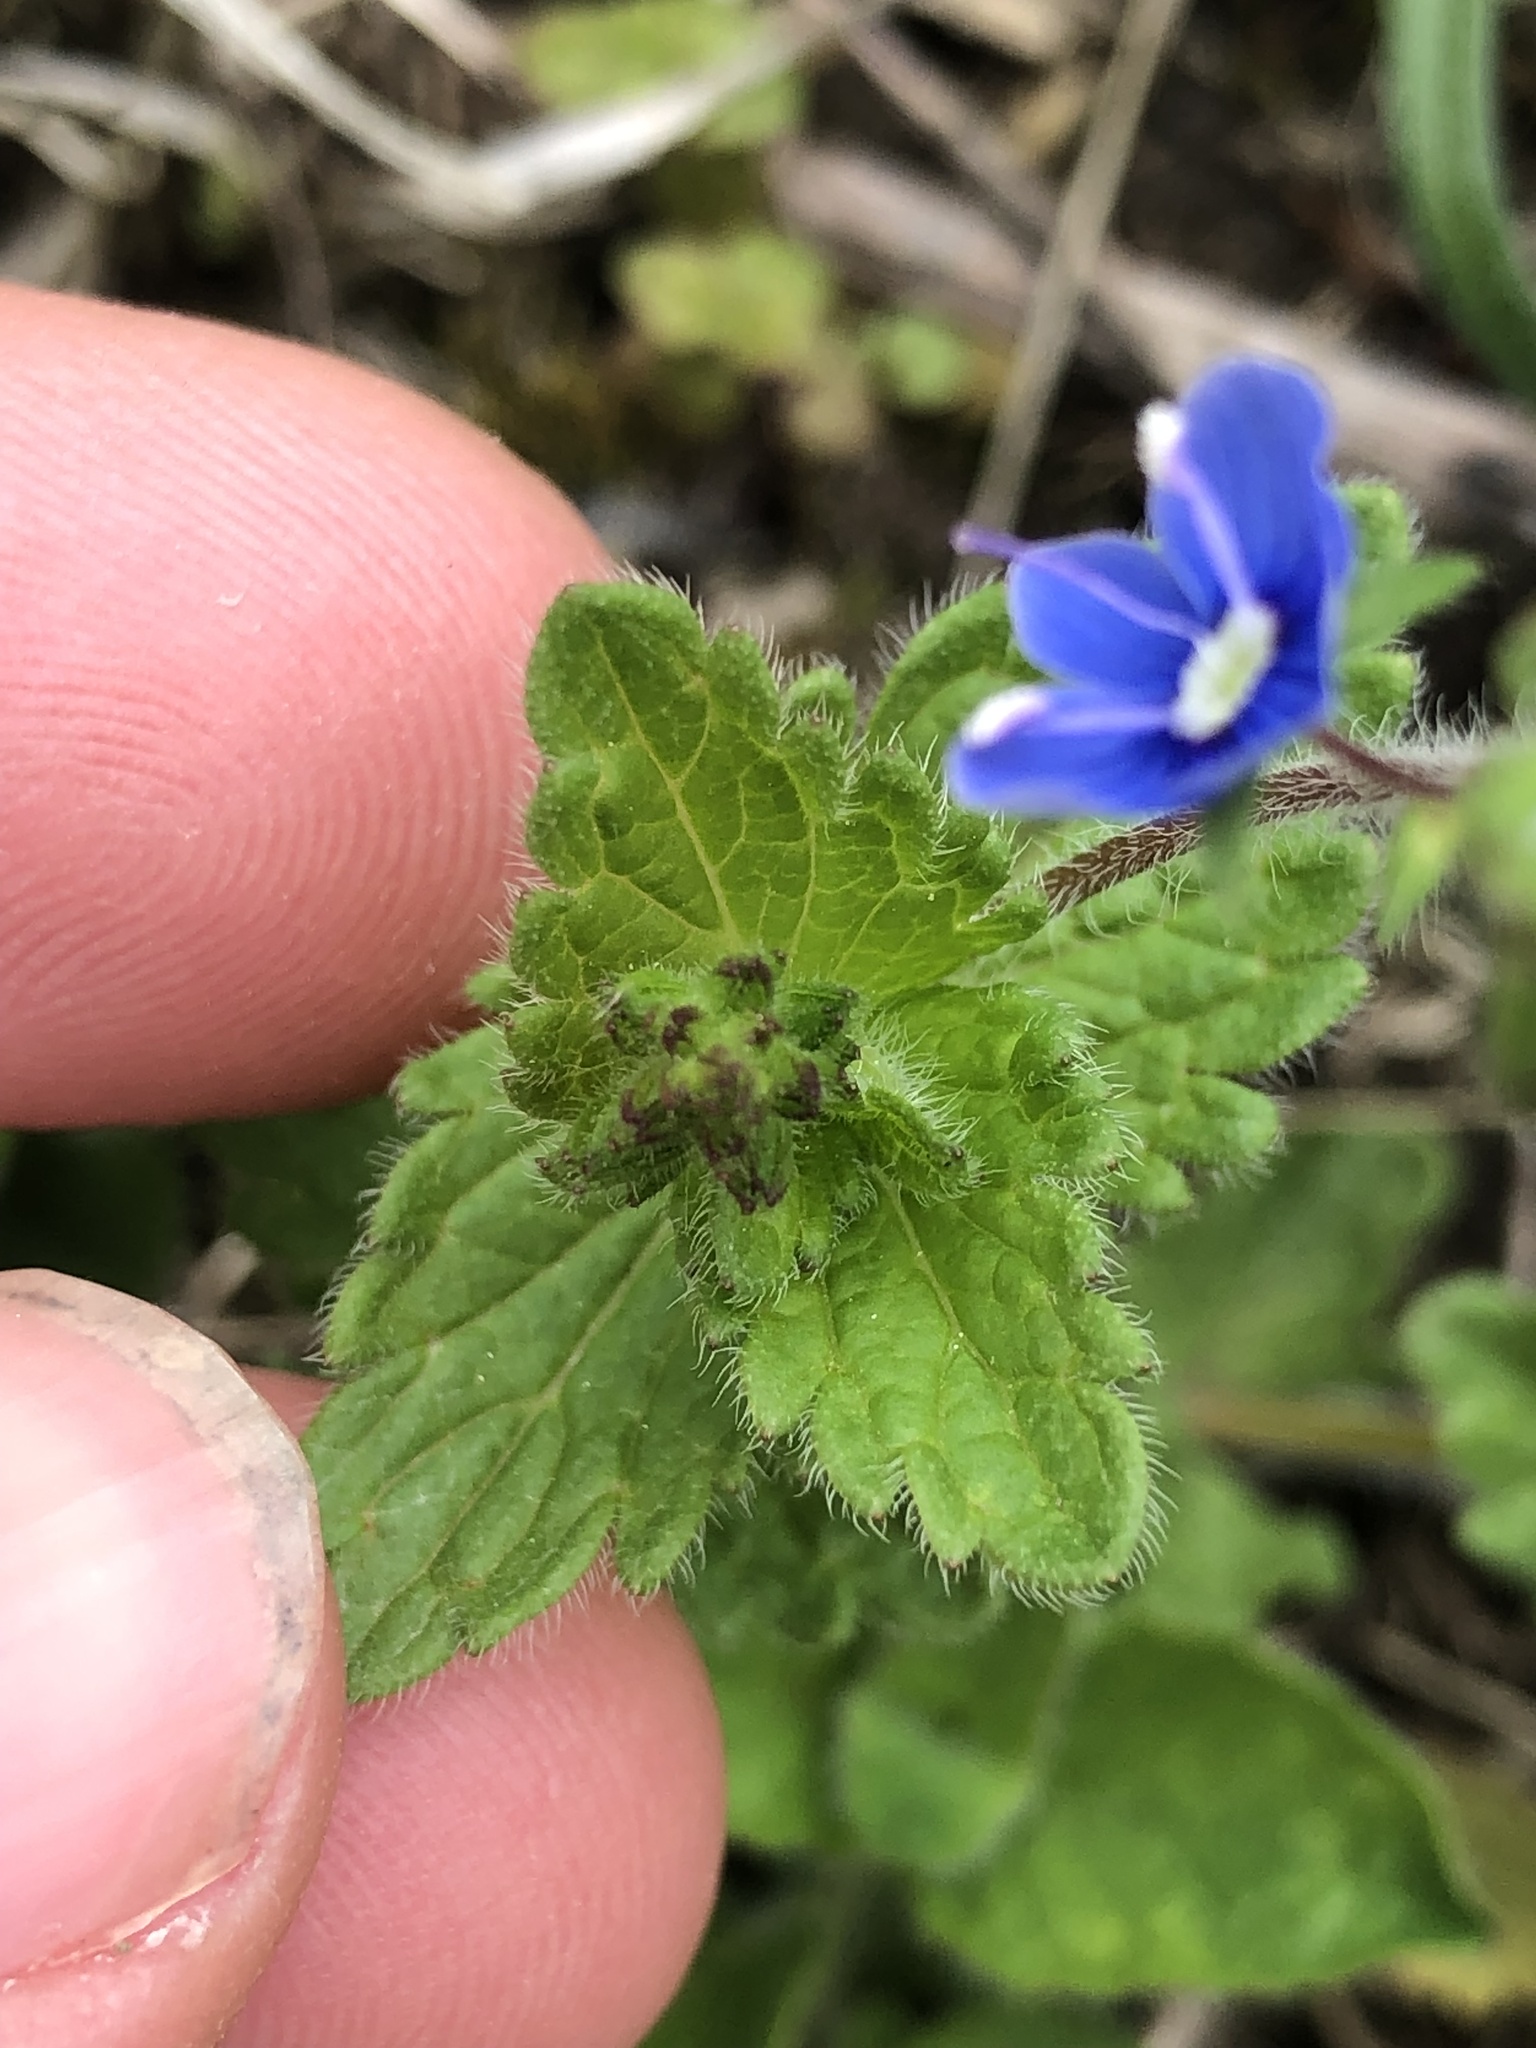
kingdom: Plantae
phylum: Tracheophyta
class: Magnoliopsida
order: Lamiales
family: Plantaginaceae
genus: Veronica
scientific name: Veronica chamaedrys
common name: Germander speedwell
